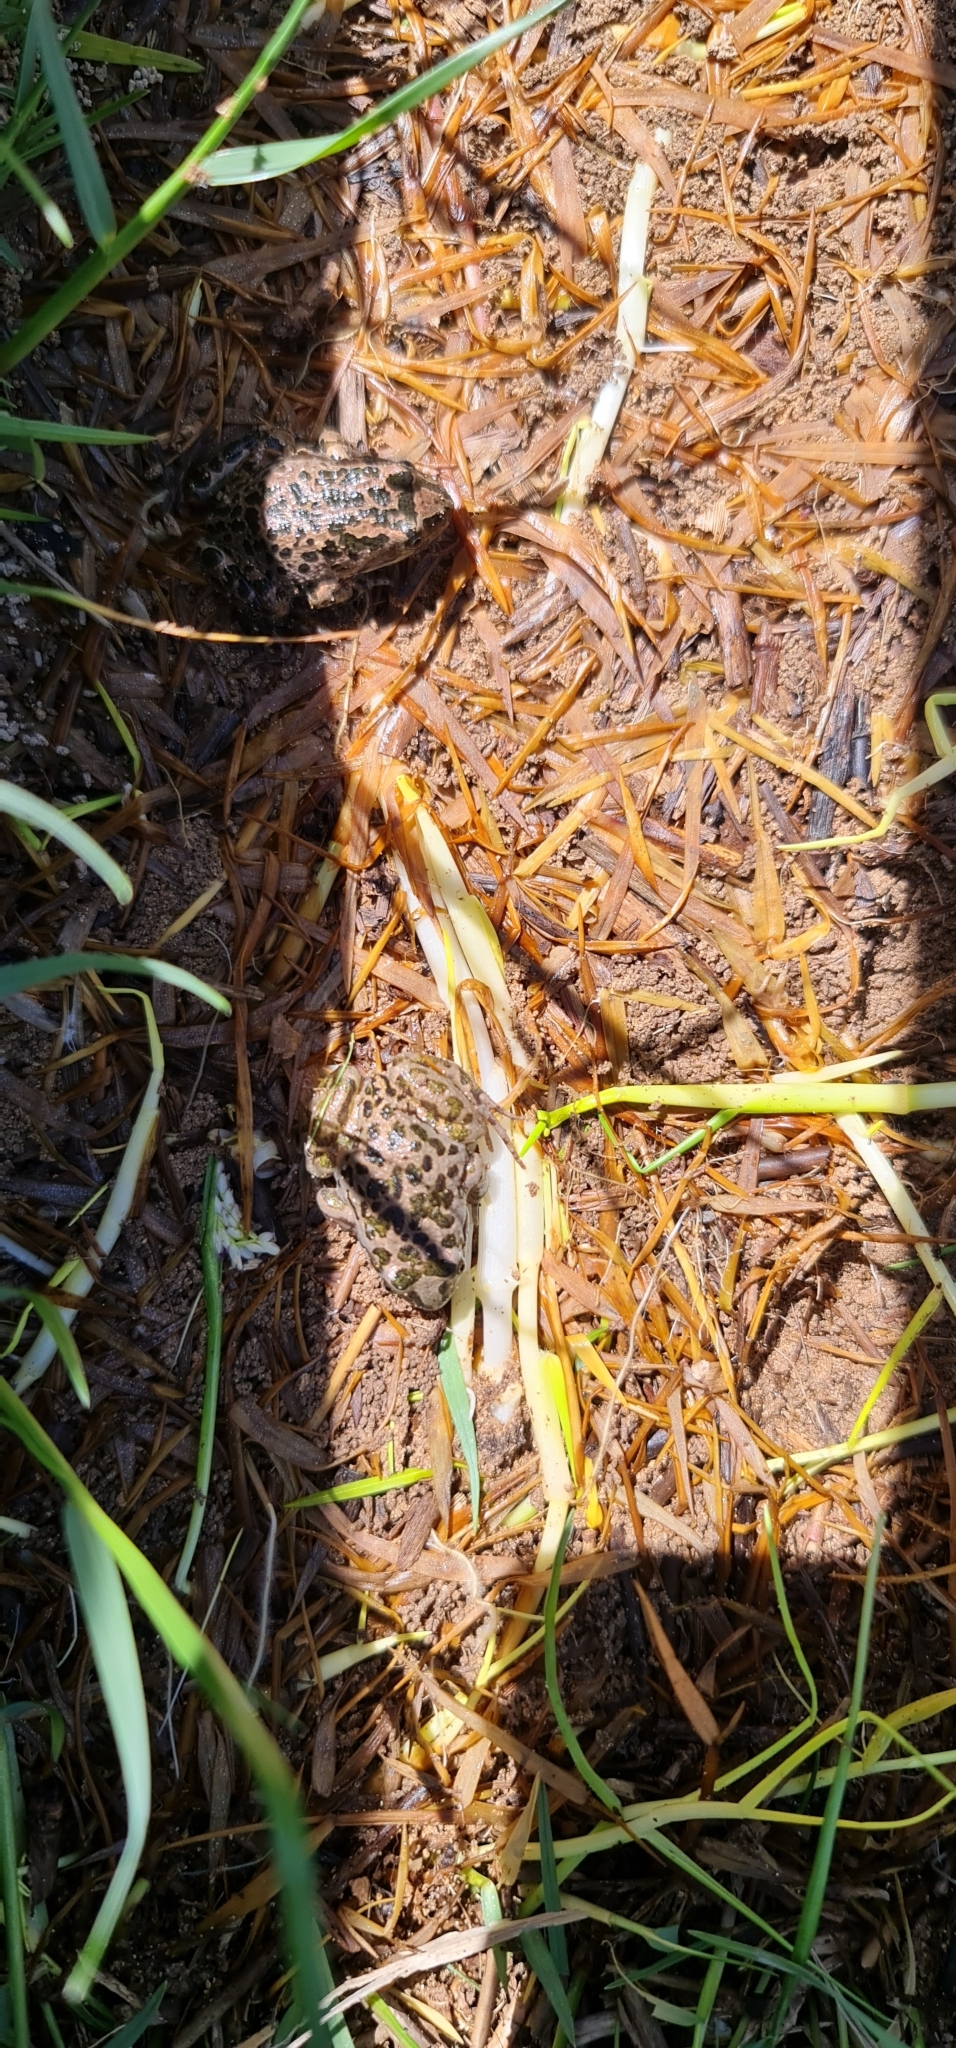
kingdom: Animalia
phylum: Chordata
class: Amphibia
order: Anura
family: Limnodynastidae
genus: Limnodynastes
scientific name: Limnodynastes tasmaniensis
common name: Spotted marsh frog
